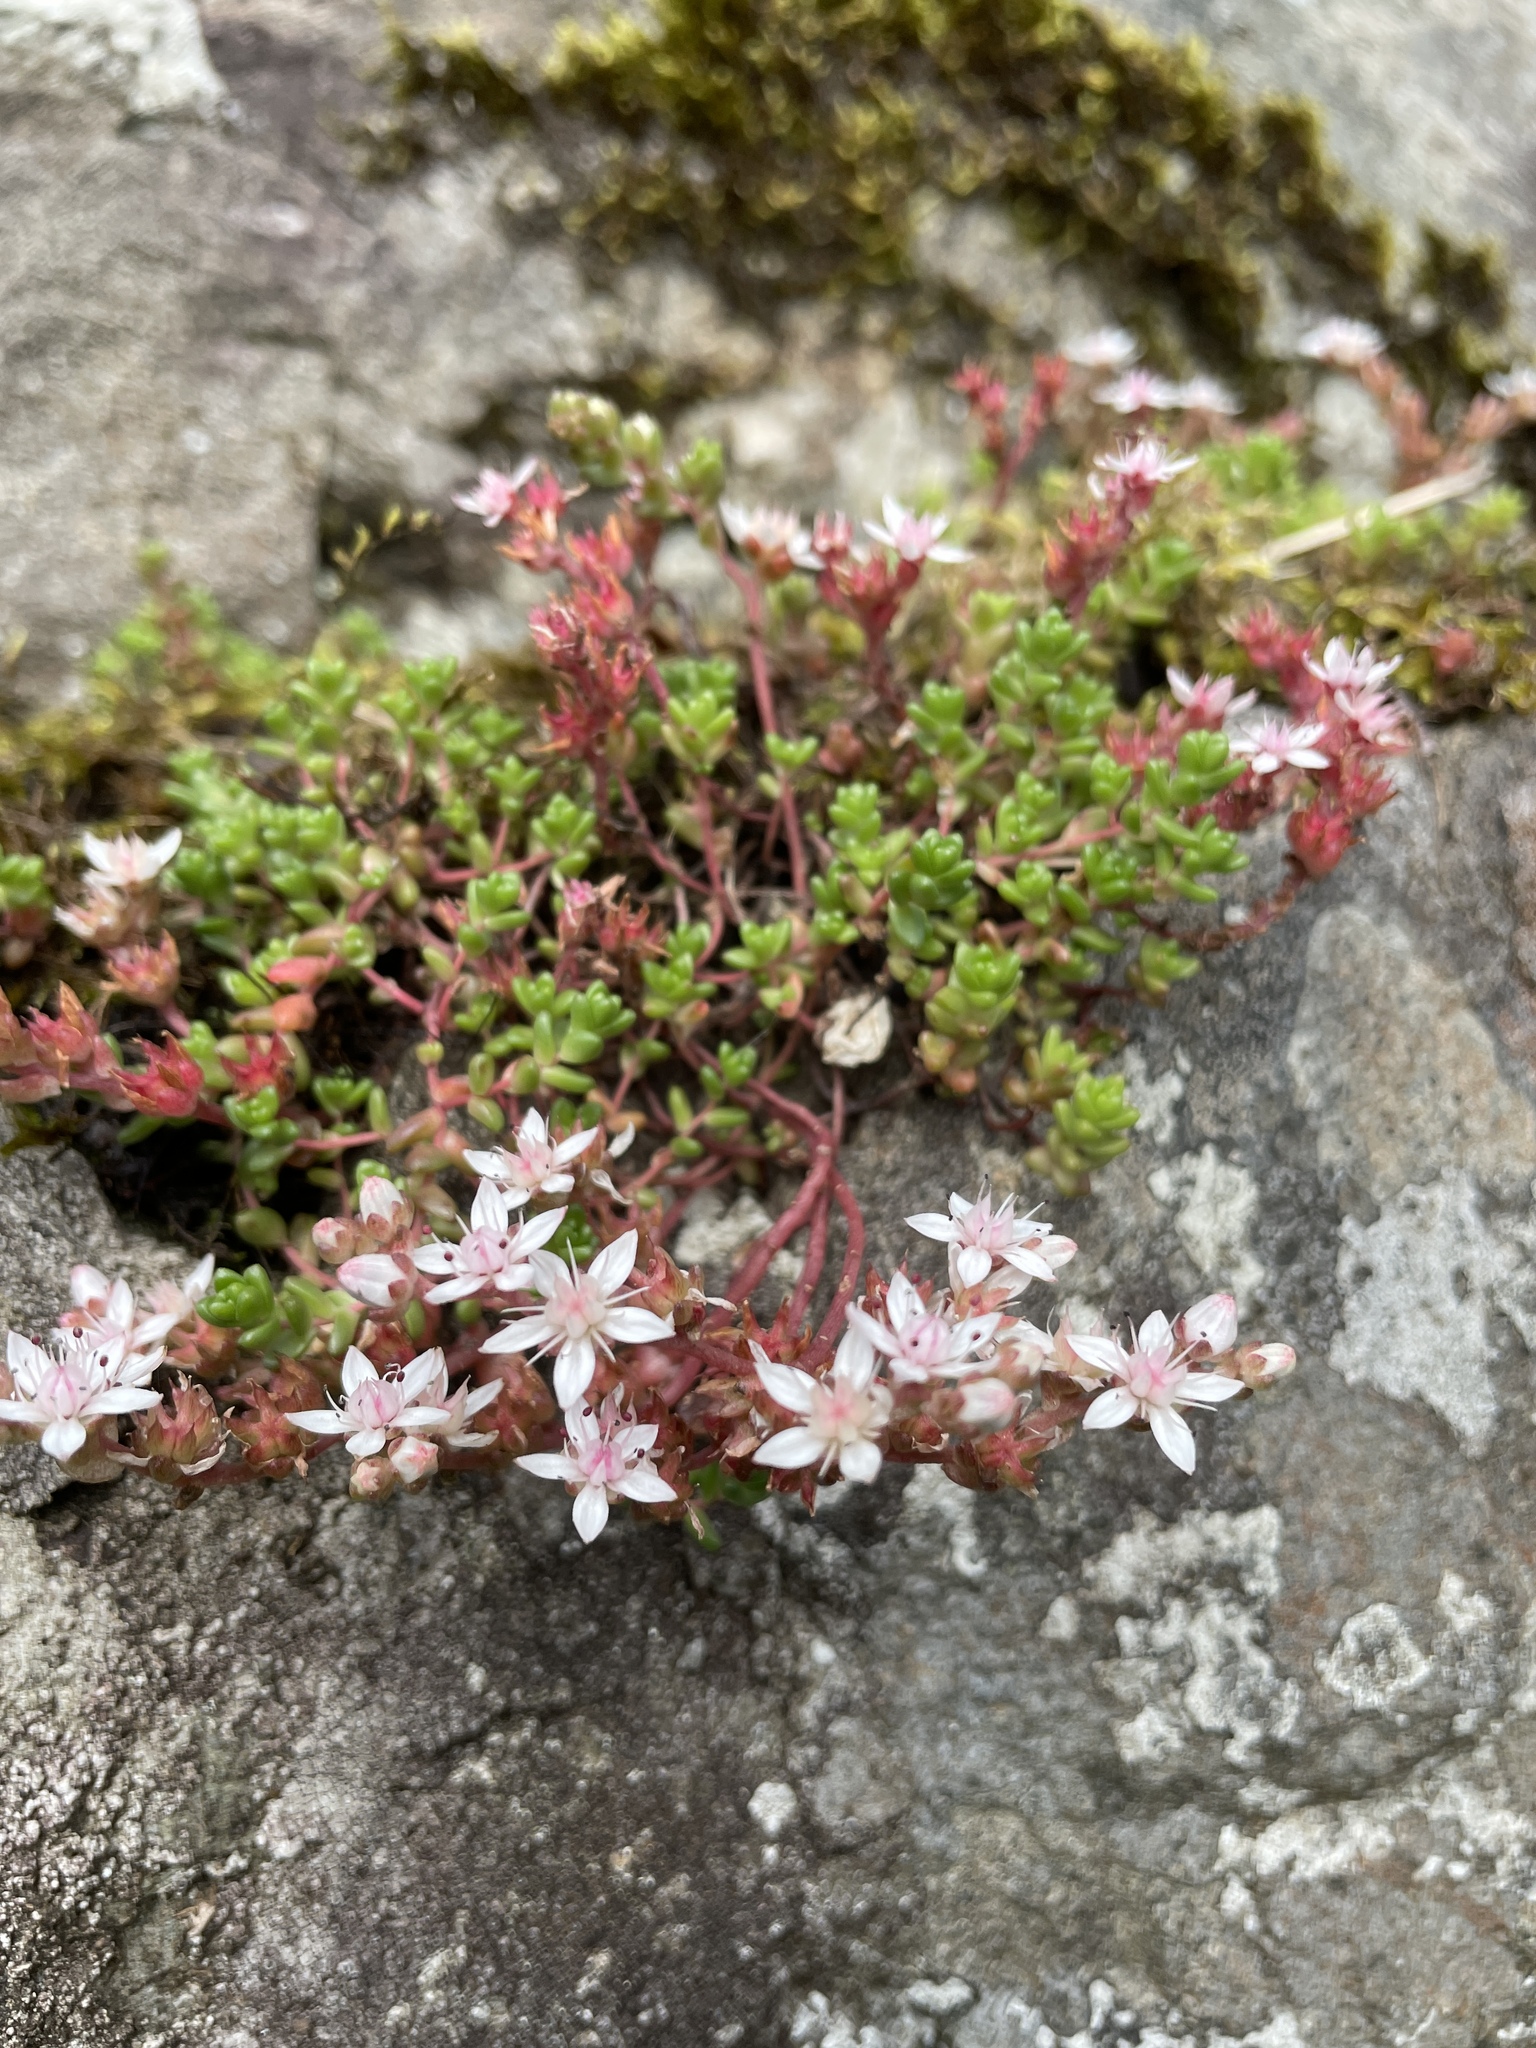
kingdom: Plantae
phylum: Tracheophyta
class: Magnoliopsida
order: Saxifragales
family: Crassulaceae
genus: Sedum
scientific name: Sedum anglicum
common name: English stonecrop
